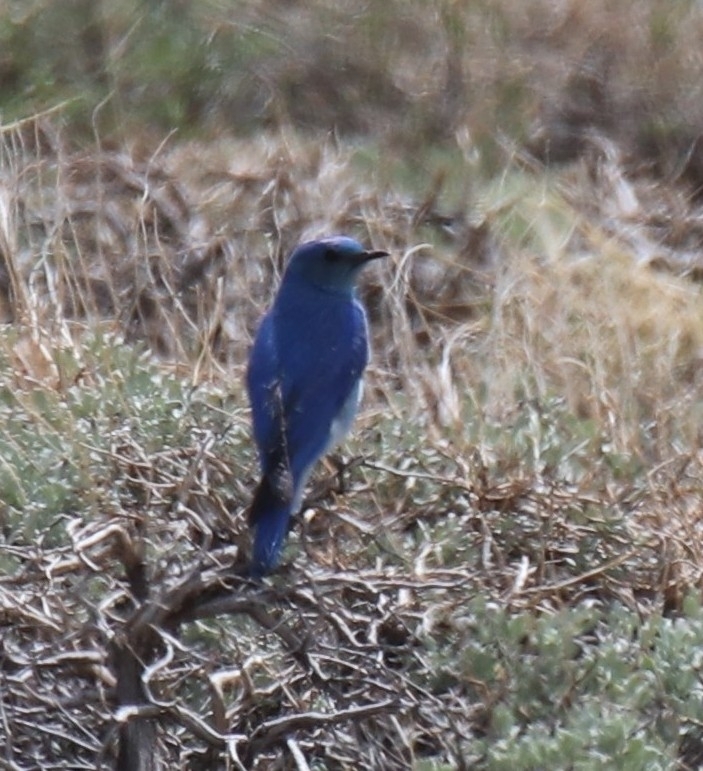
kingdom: Animalia
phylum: Chordata
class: Aves
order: Passeriformes
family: Turdidae
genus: Sialia
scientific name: Sialia currucoides
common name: Mountain bluebird
